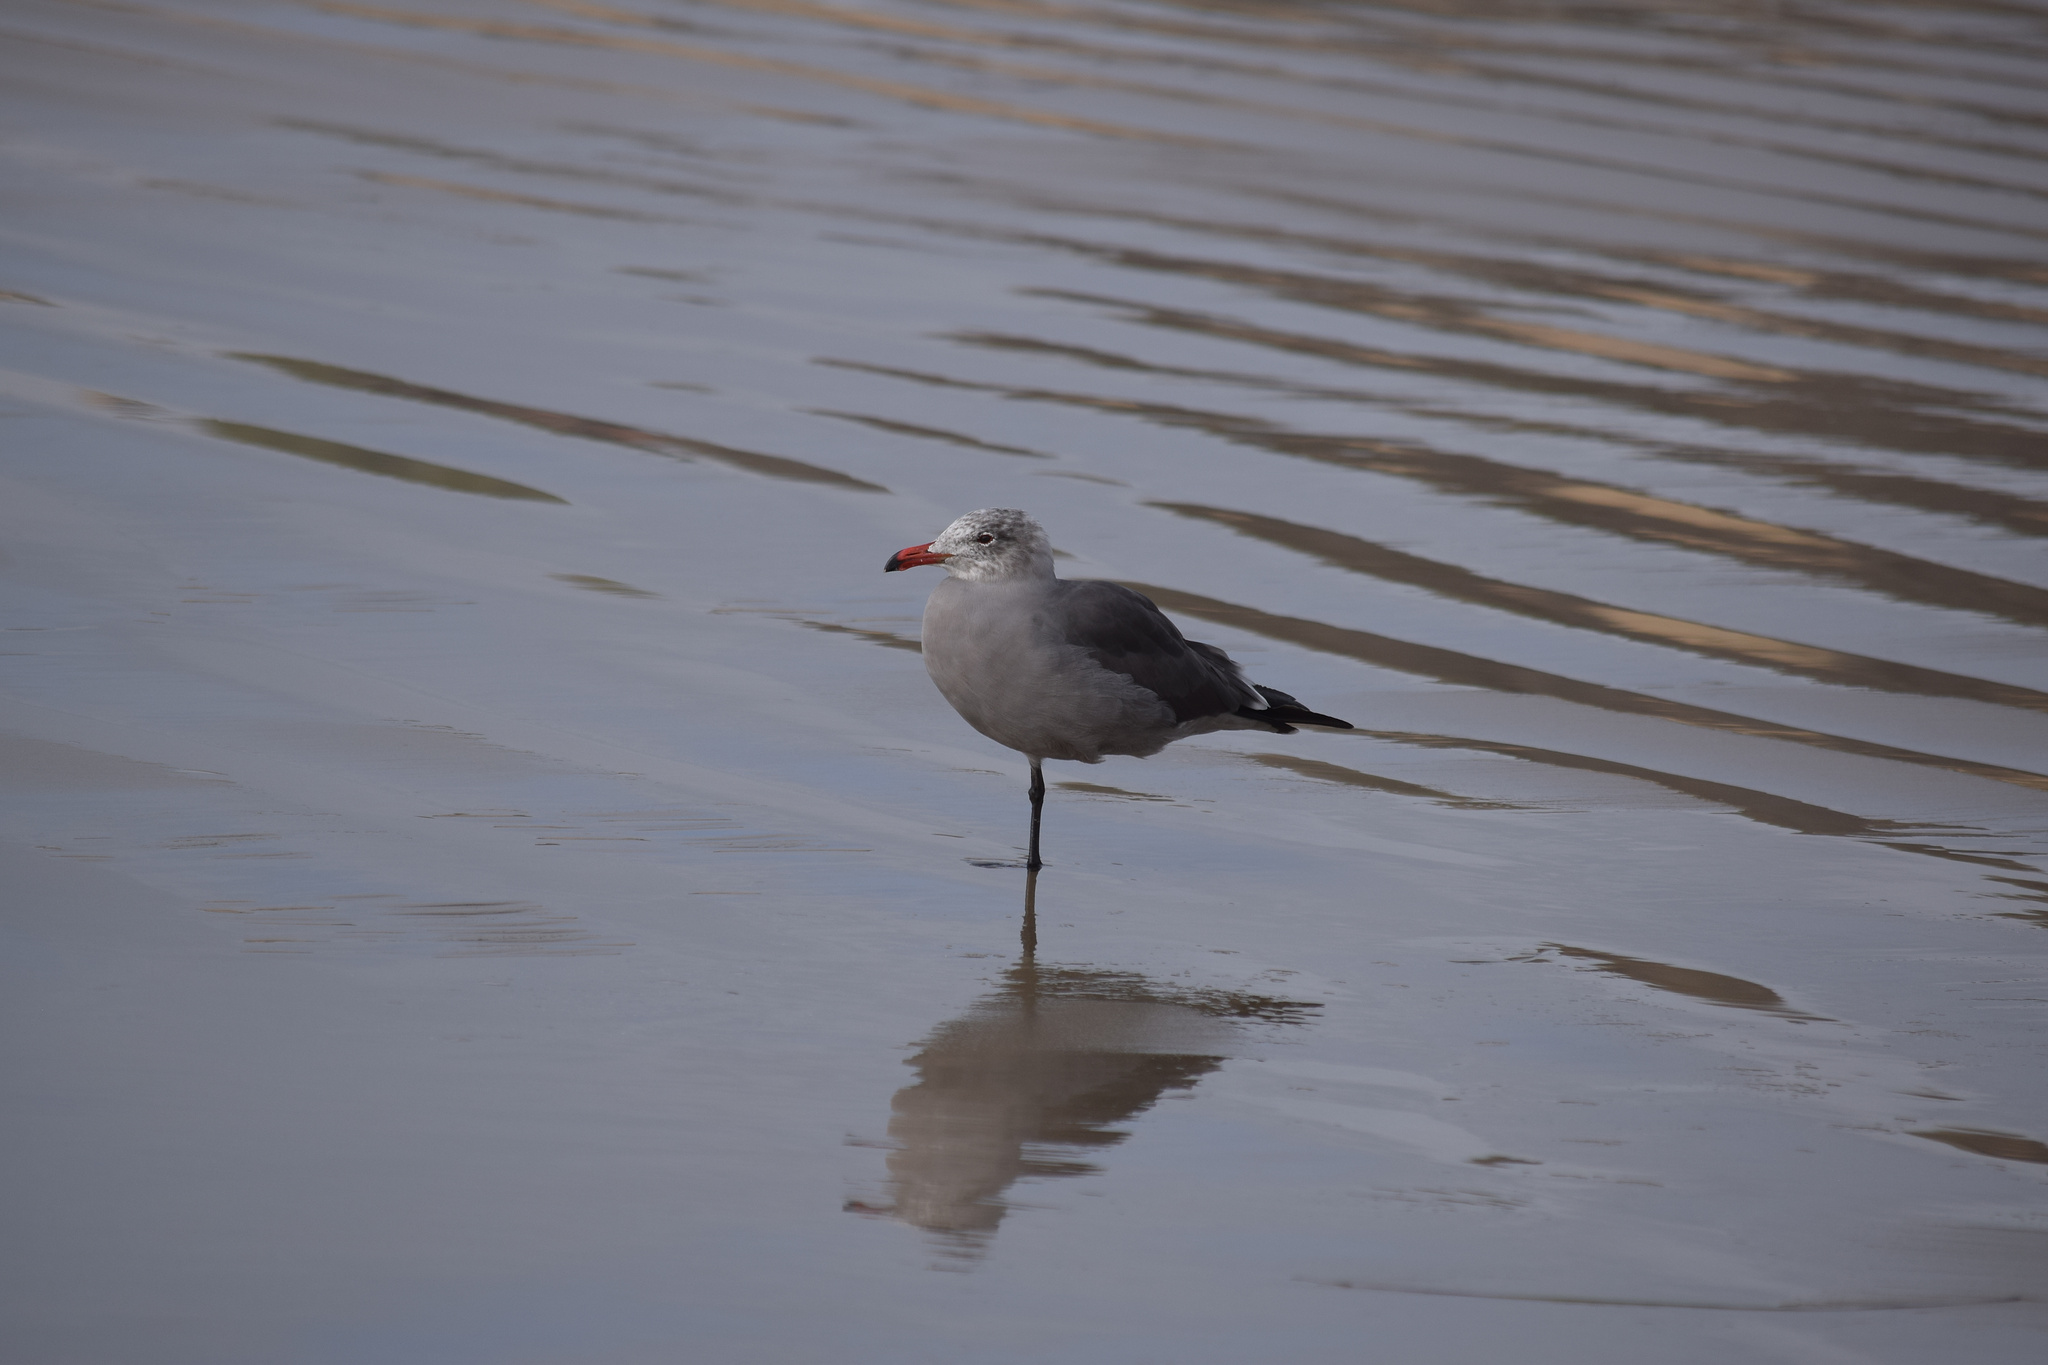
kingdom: Animalia
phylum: Chordata
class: Aves
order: Charadriiformes
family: Laridae
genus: Larus
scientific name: Larus heermanni
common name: Heermann's gull
